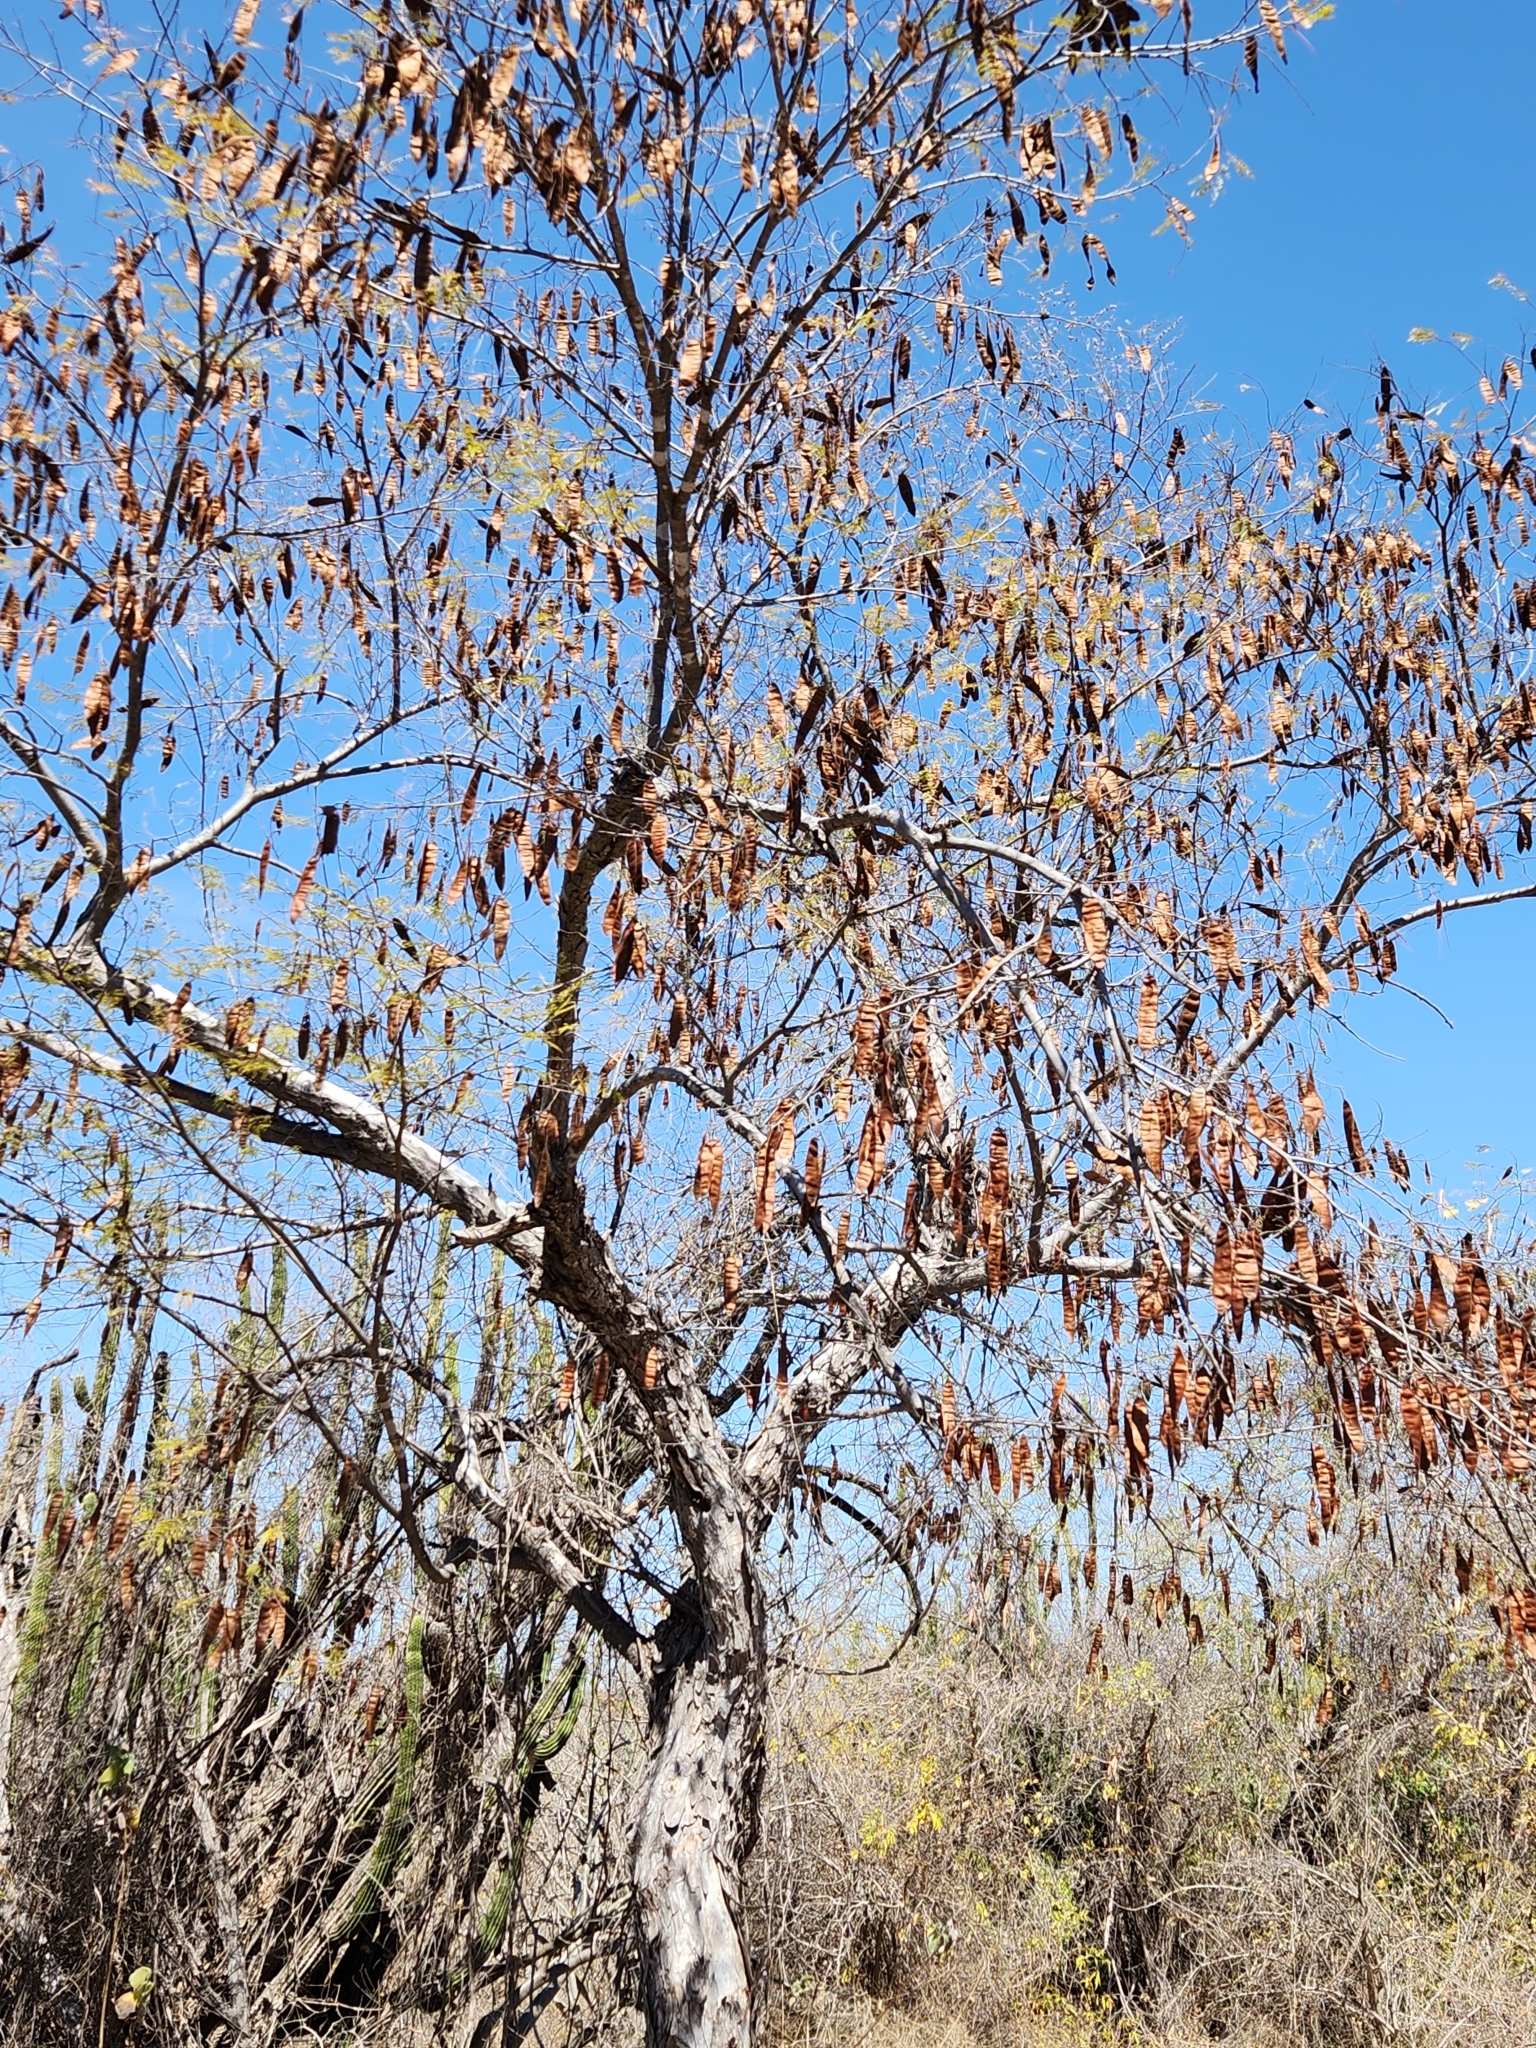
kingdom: Plantae
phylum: Tracheophyta
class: Magnoliopsida
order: Fabales
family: Fabaceae
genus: Lysiloma
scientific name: Lysiloma divaricatum
